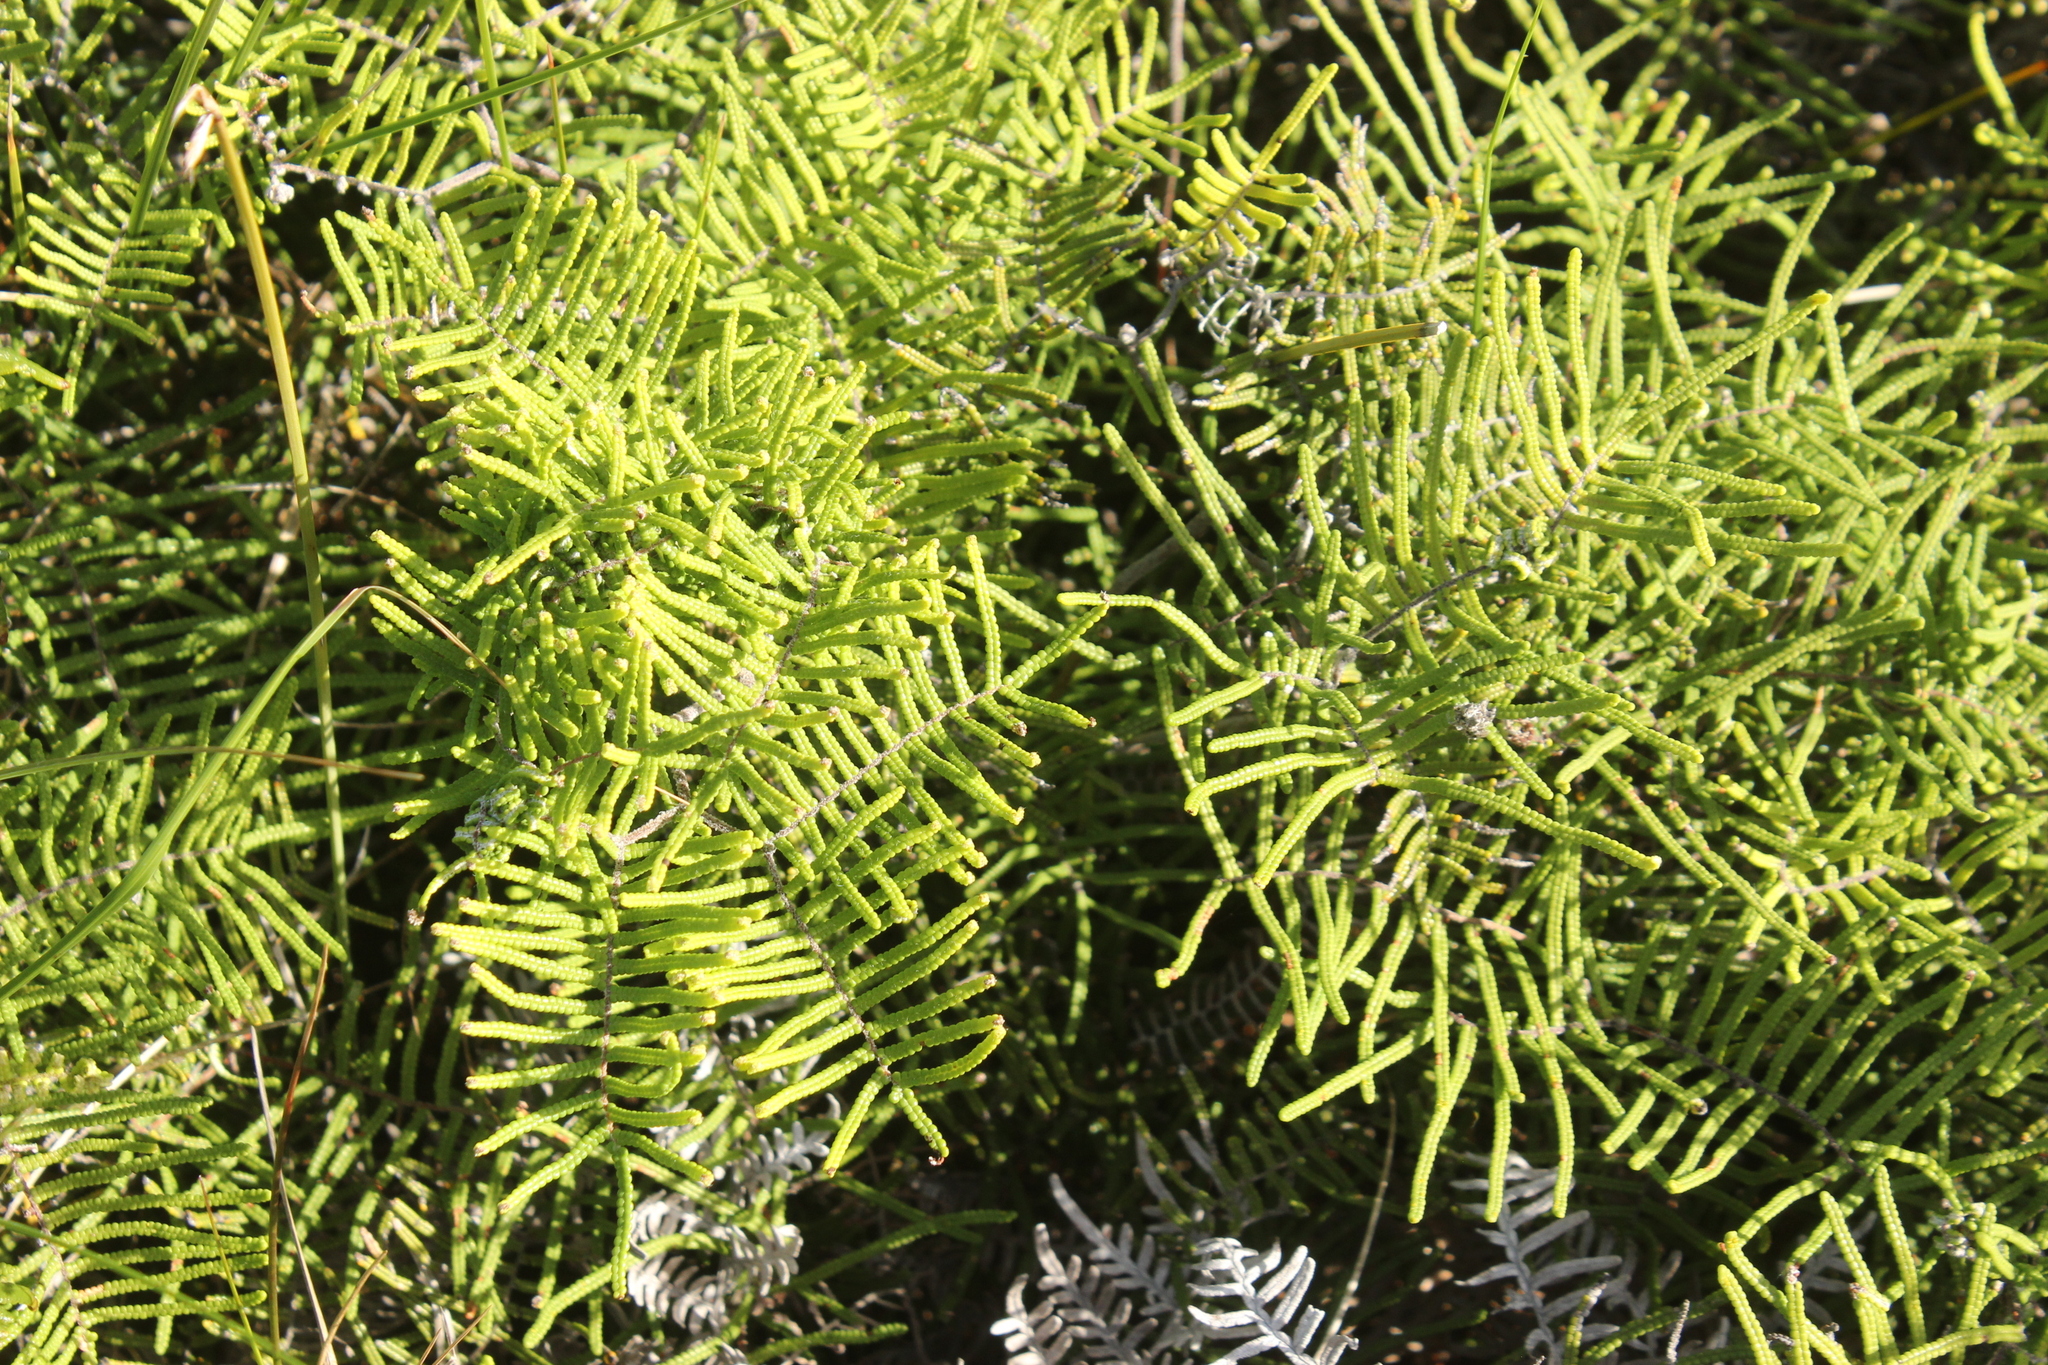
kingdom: Plantae
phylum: Tracheophyta
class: Polypodiopsida
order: Gleicheniales
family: Gleicheniaceae
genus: Gleichenia
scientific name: Gleichenia dicarpa
